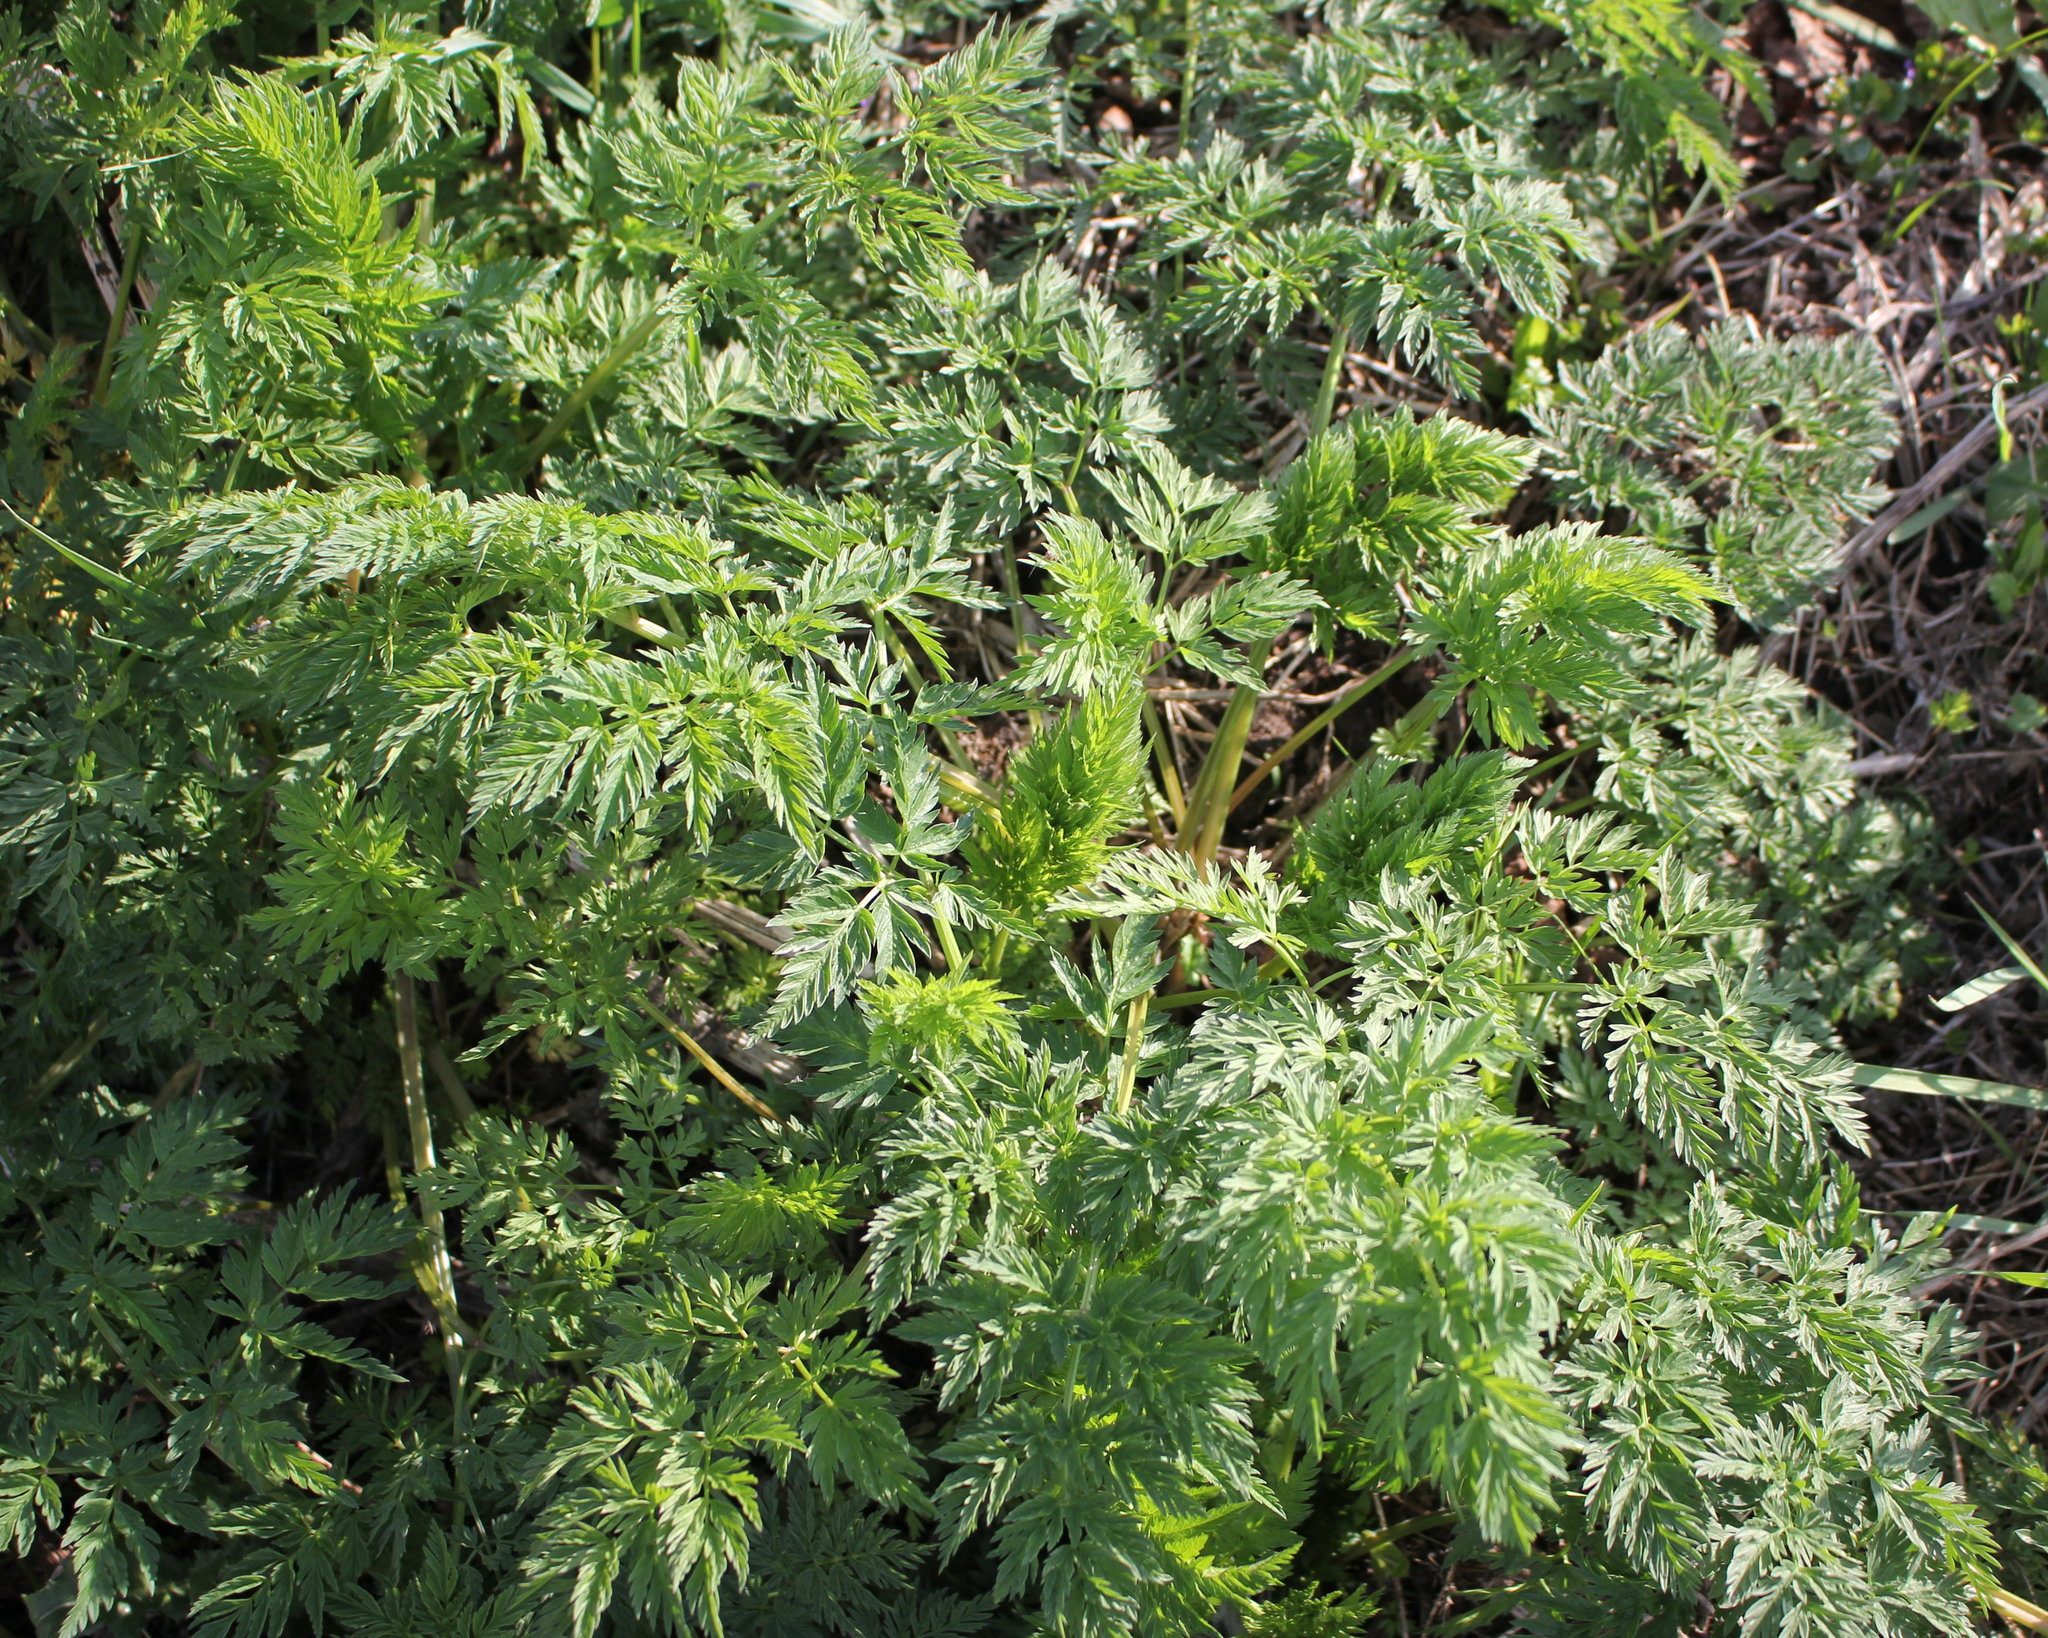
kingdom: Plantae
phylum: Tracheophyta
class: Magnoliopsida
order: Apiales
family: Apiaceae
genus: Anthriscus
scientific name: Anthriscus sylvestris
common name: Cow parsley
